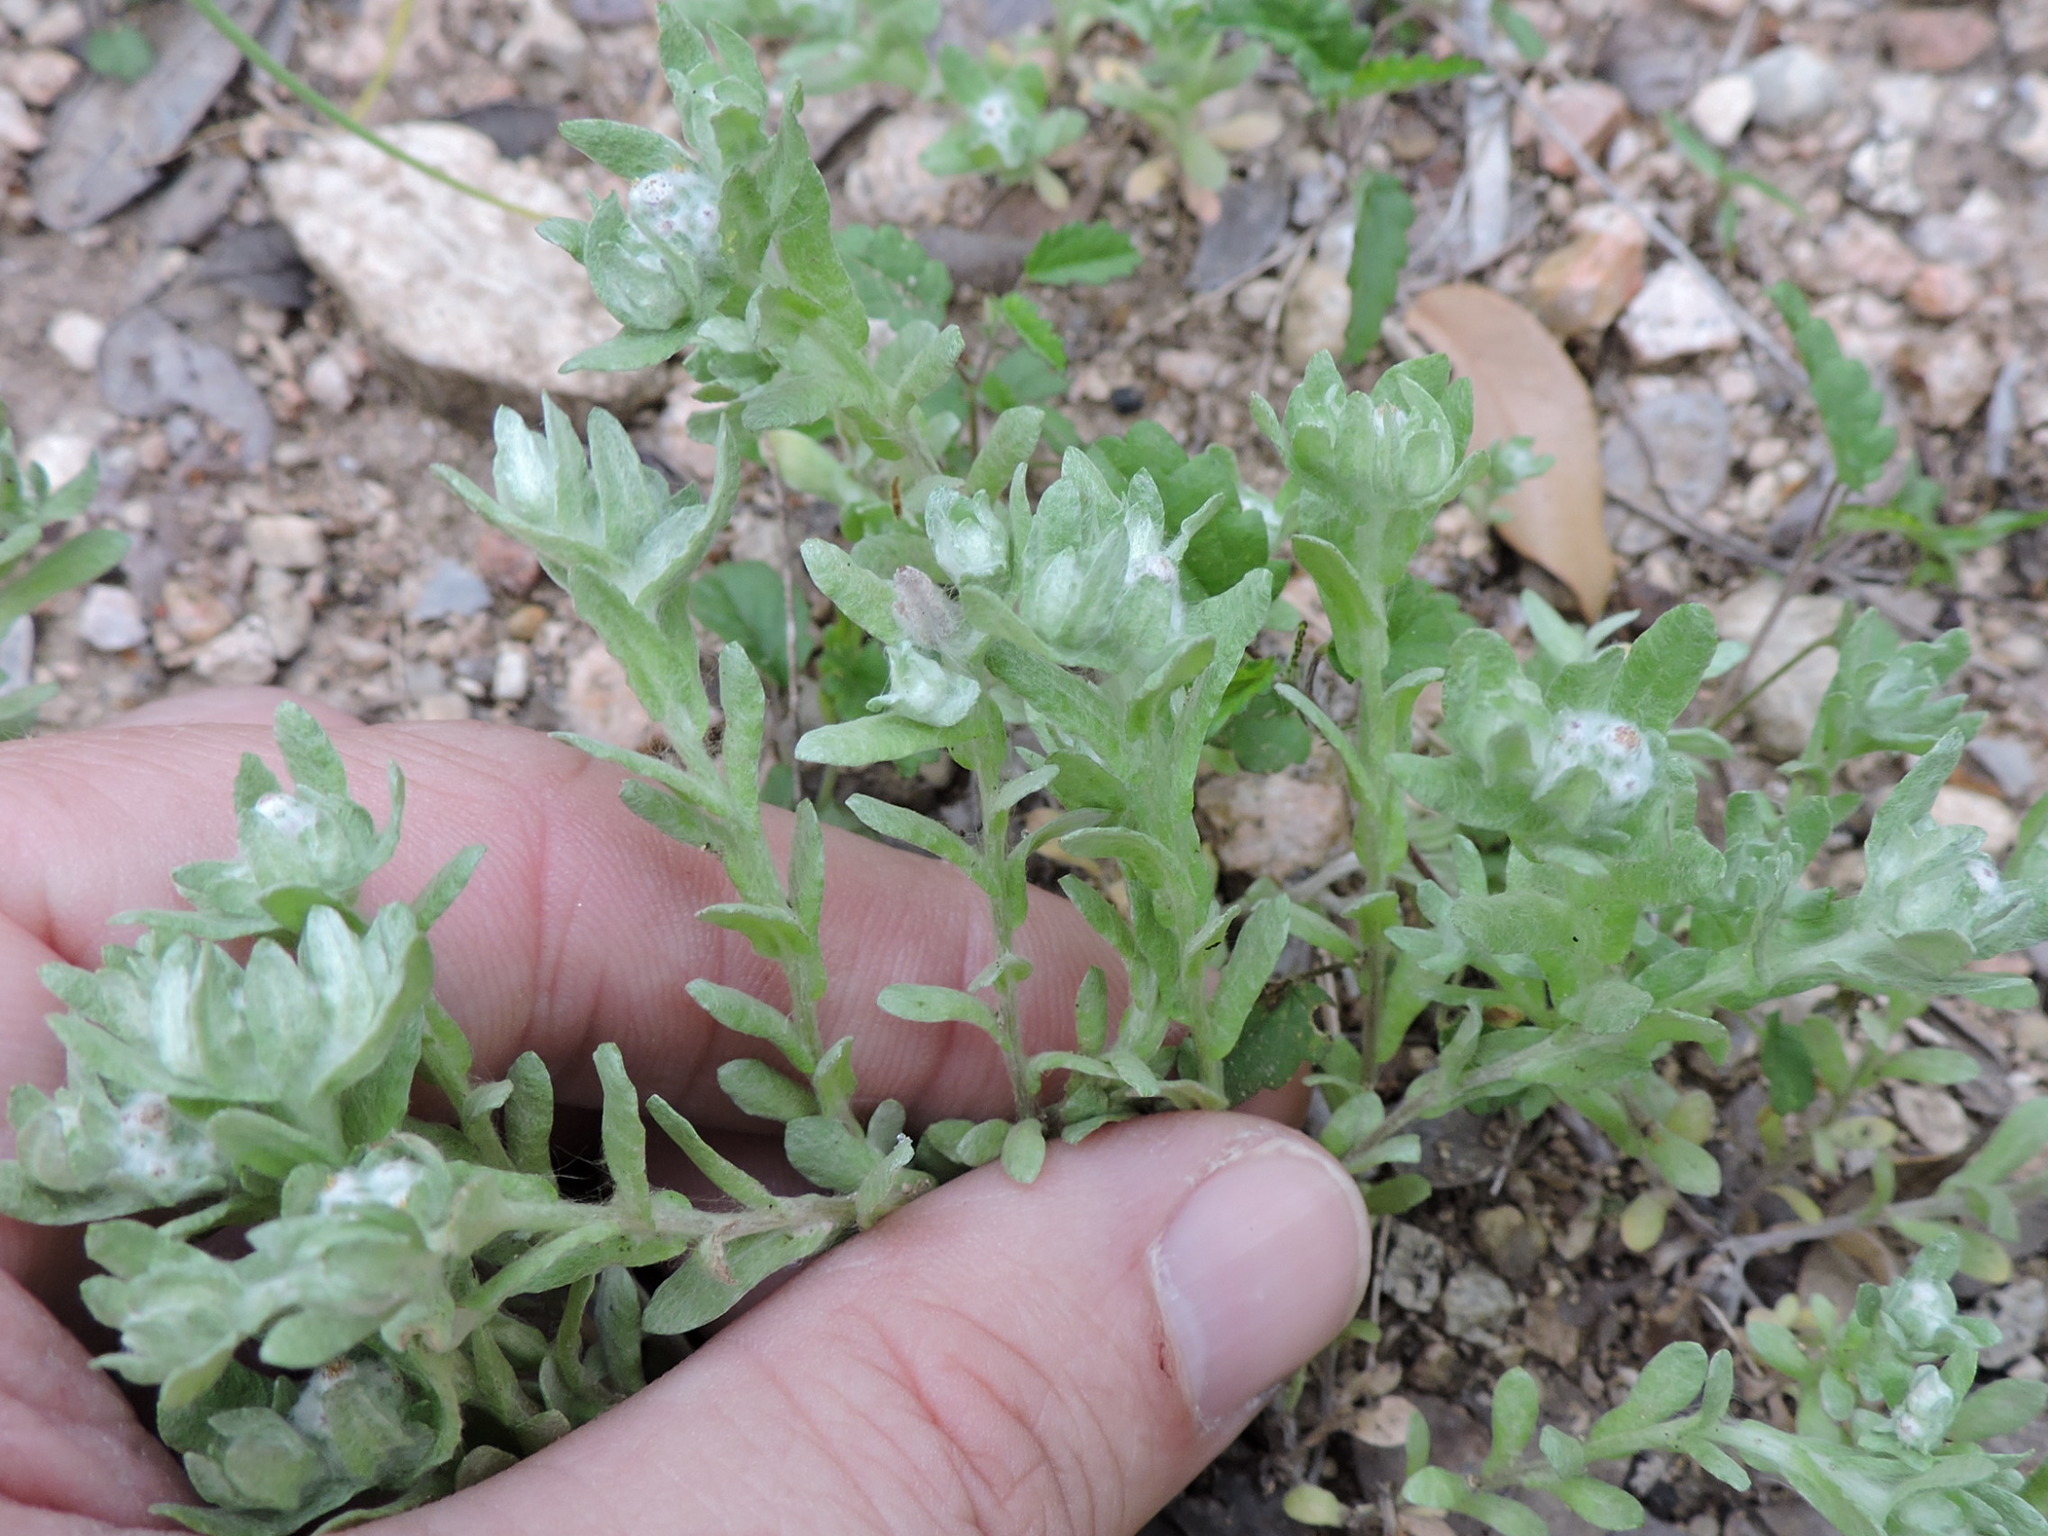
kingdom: Plantae
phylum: Tracheophyta
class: Magnoliopsida
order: Asterales
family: Asteraceae
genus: Diaperia
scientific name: Diaperia verna
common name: Many-stem rabbit-tobacco
